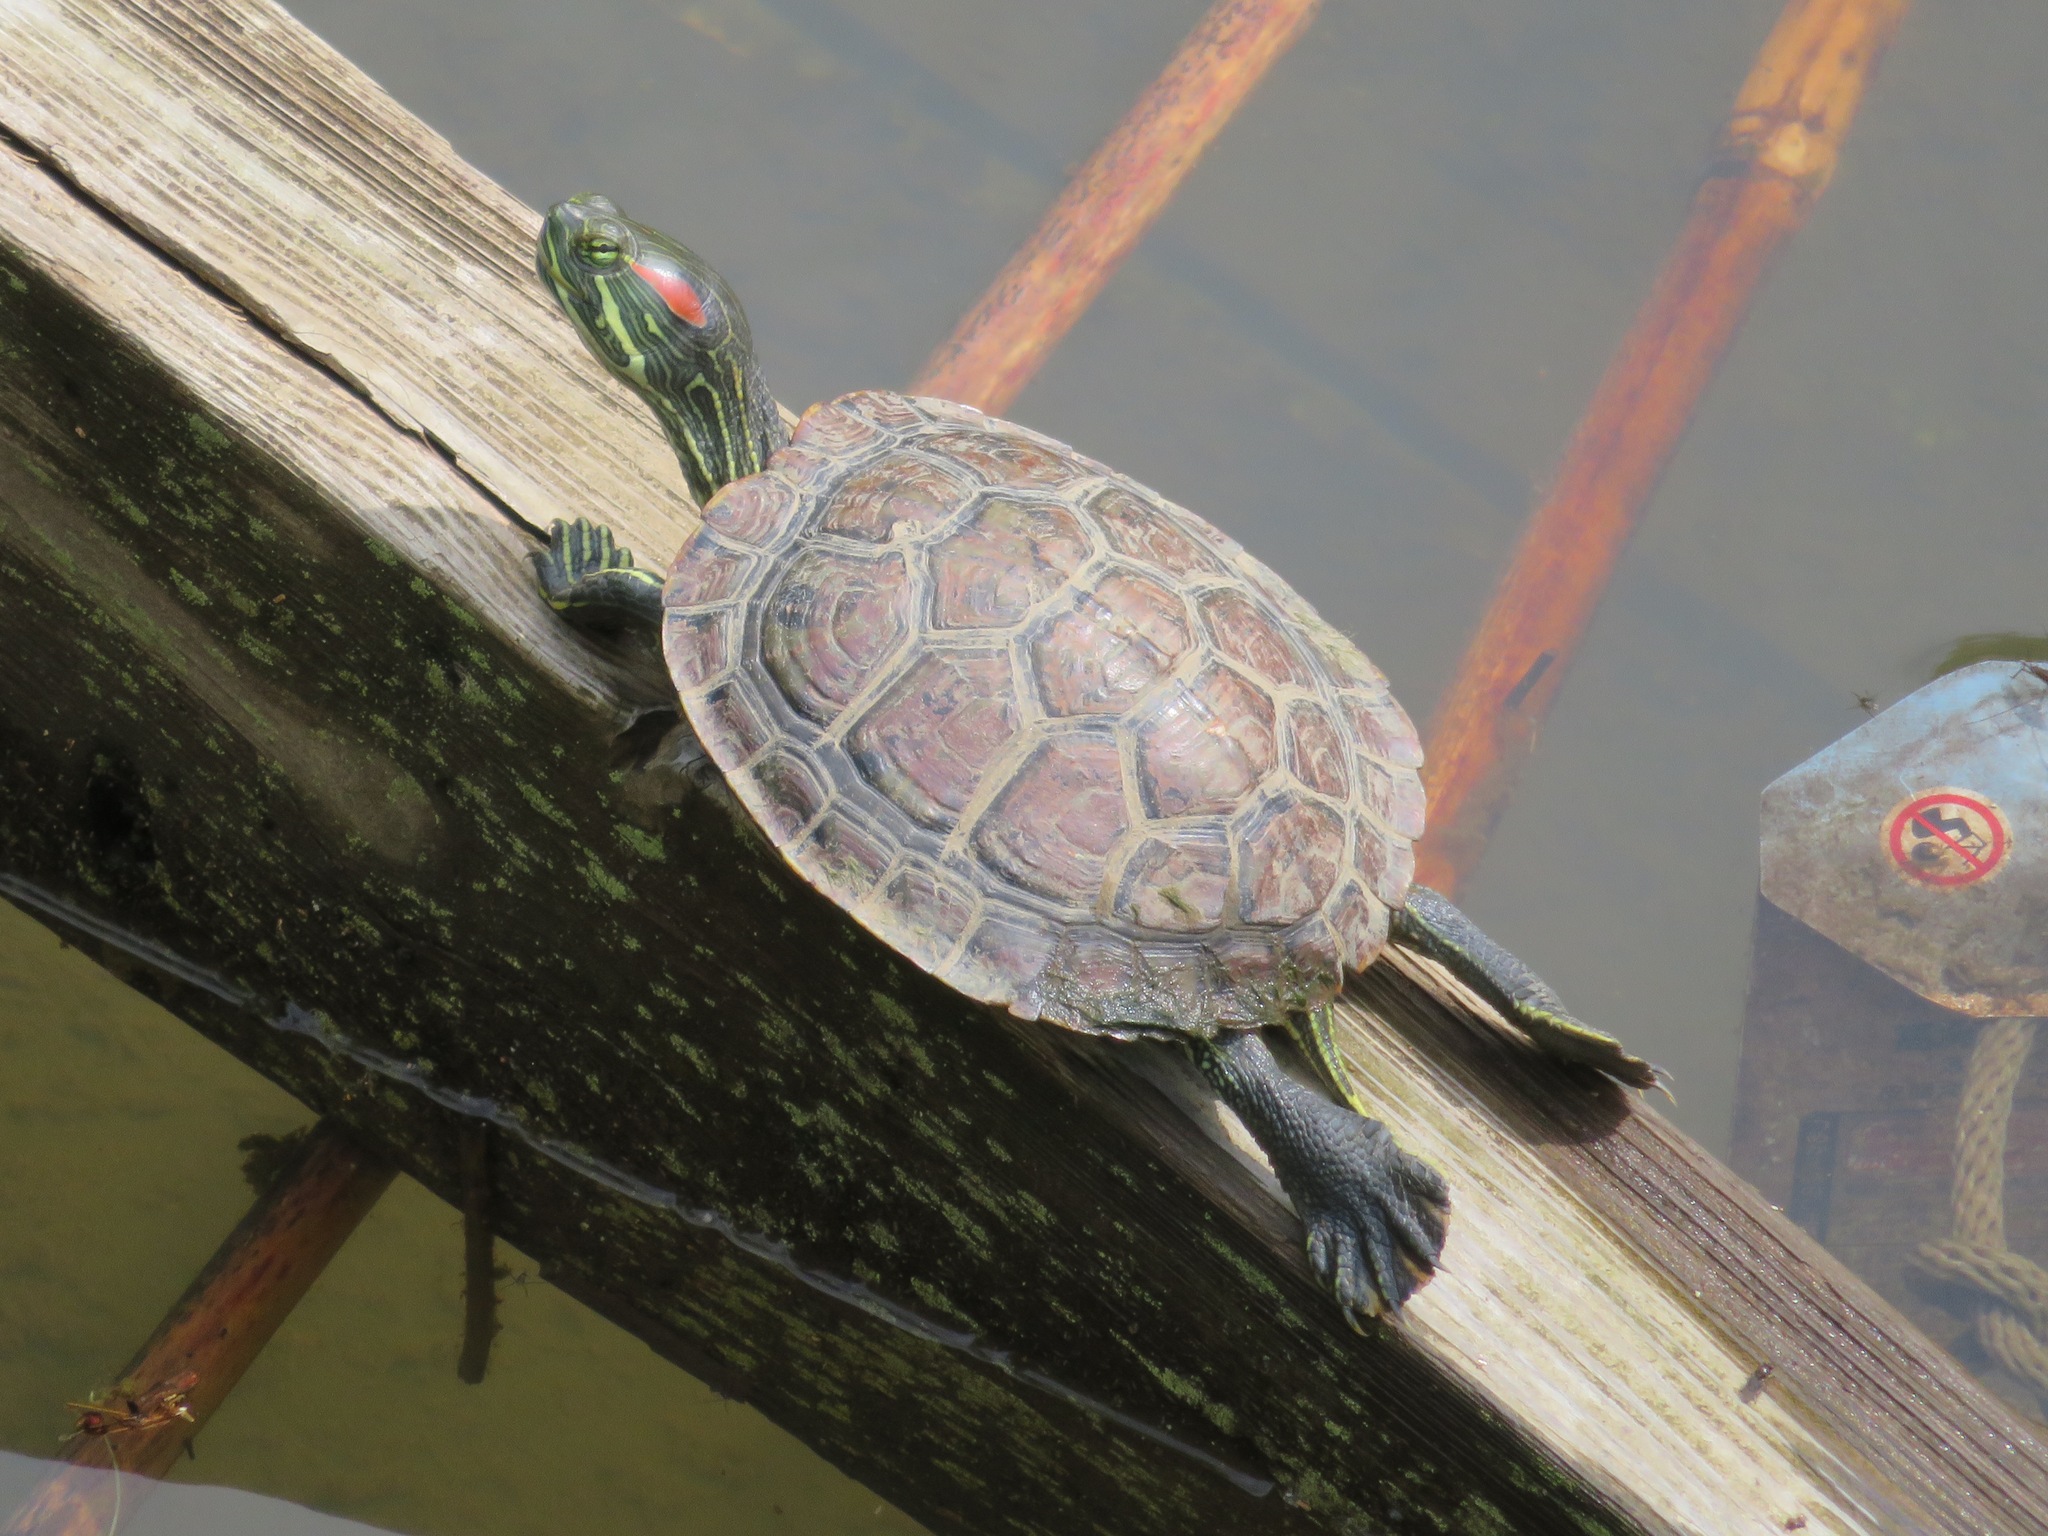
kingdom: Animalia
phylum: Chordata
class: Testudines
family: Emydidae
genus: Trachemys
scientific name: Trachemys scripta
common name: Slider
